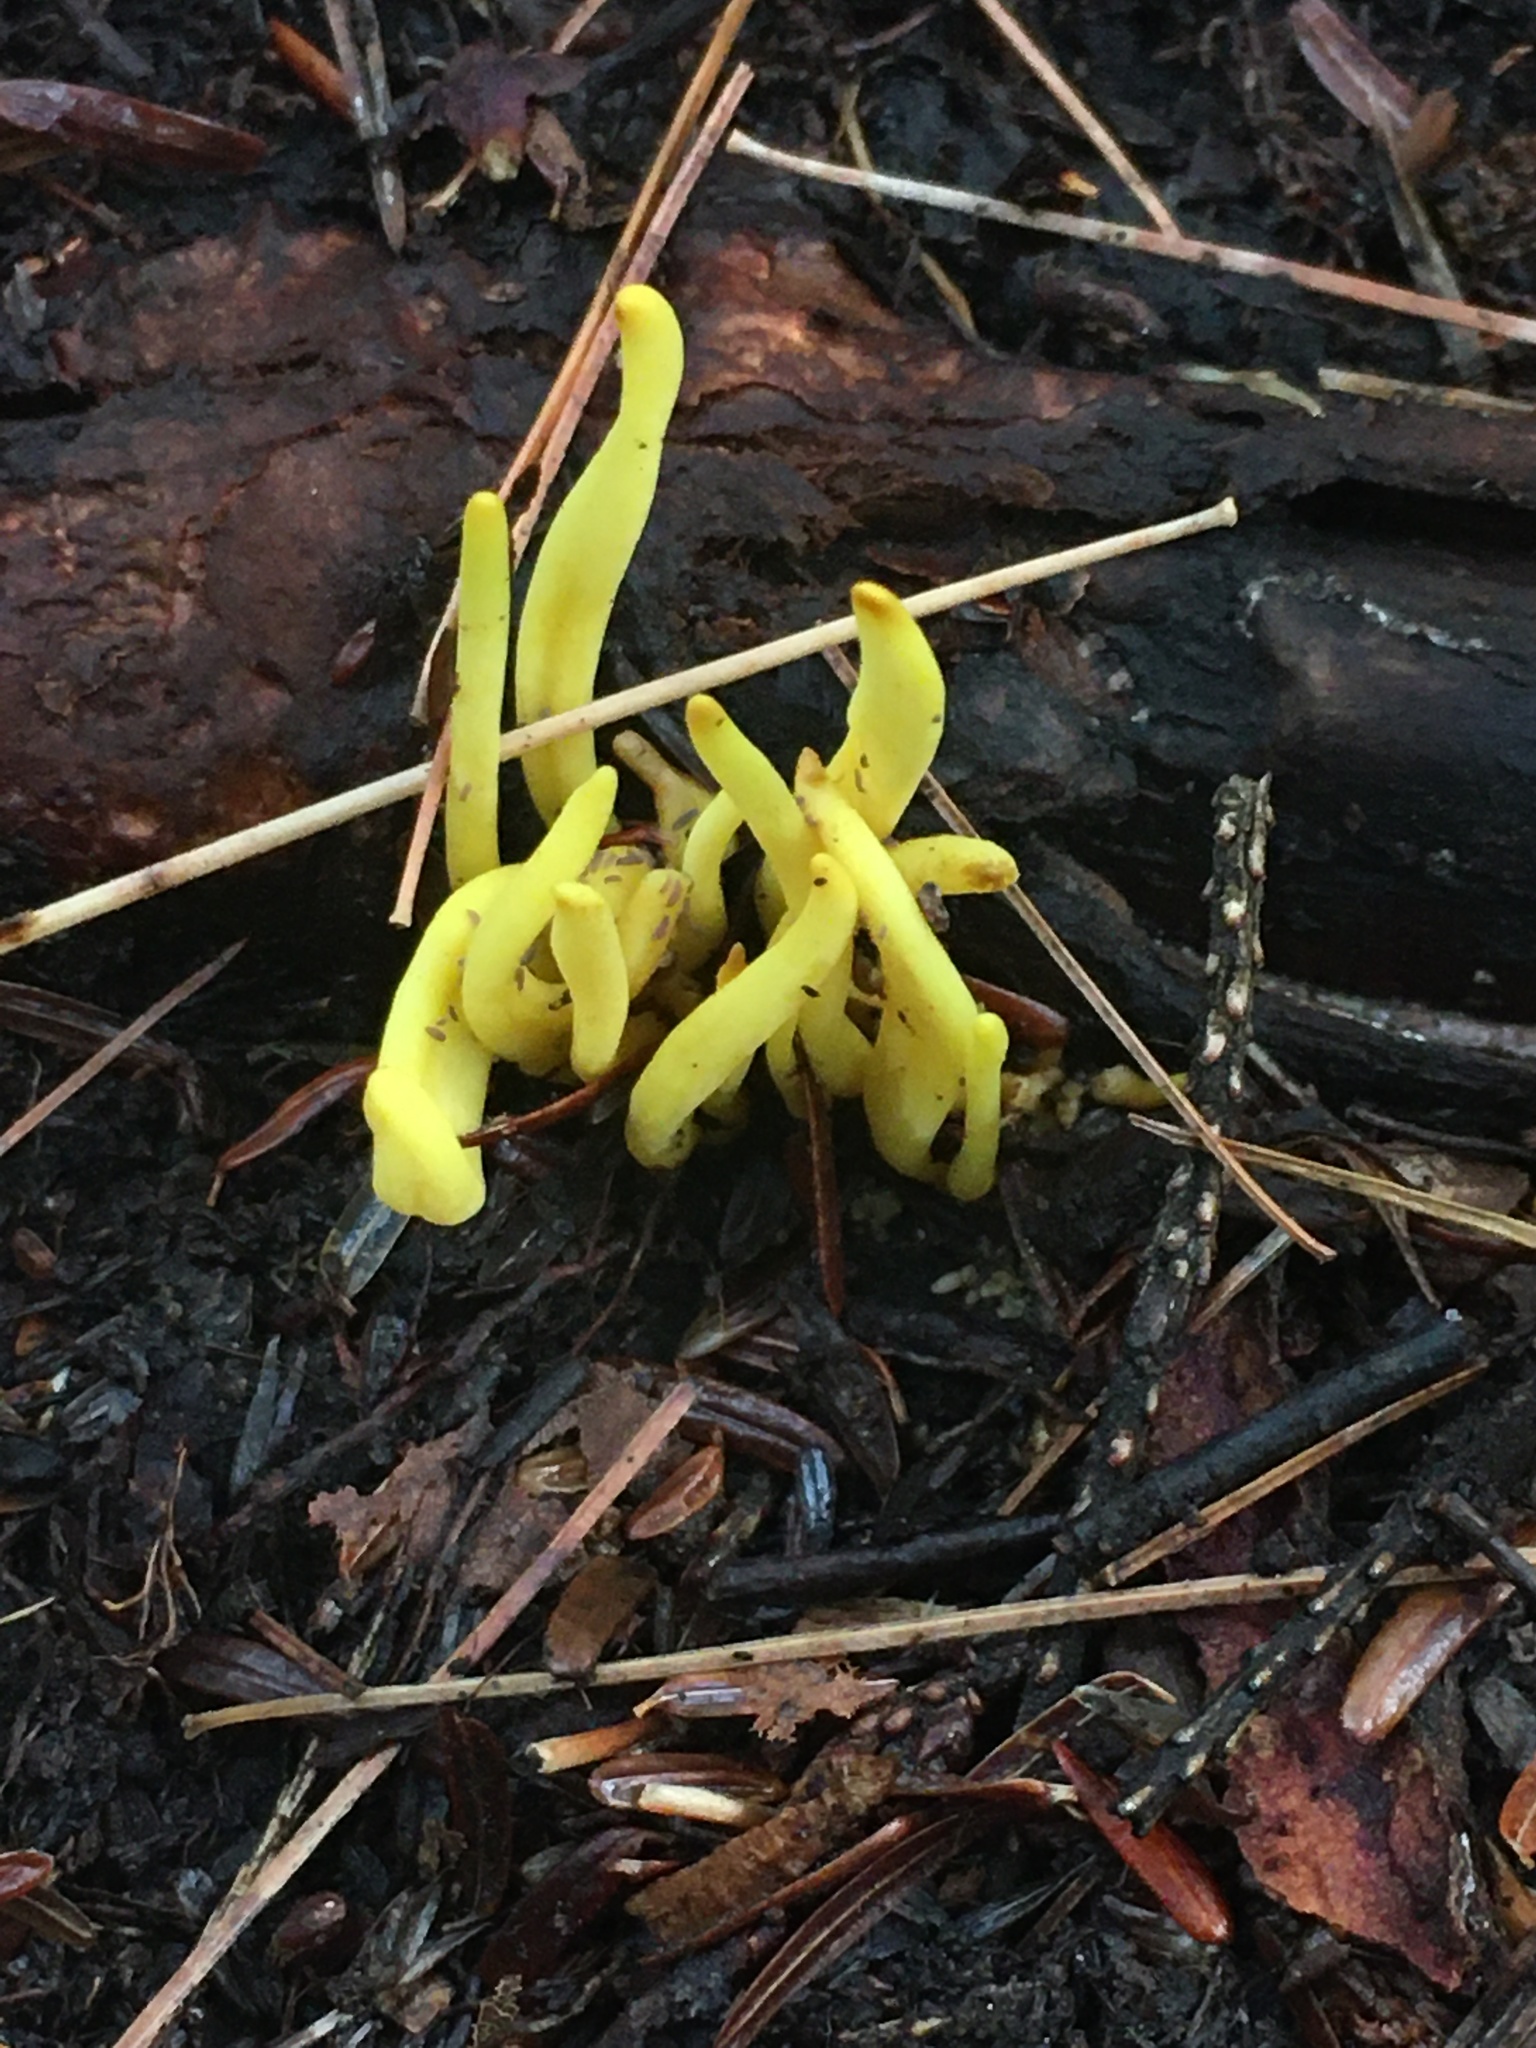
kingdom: Fungi
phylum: Basidiomycota
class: Agaricomycetes
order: Agaricales
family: Clavariaceae
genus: Clavulinopsis
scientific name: Clavulinopsis fusiformis
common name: Golden spindles
